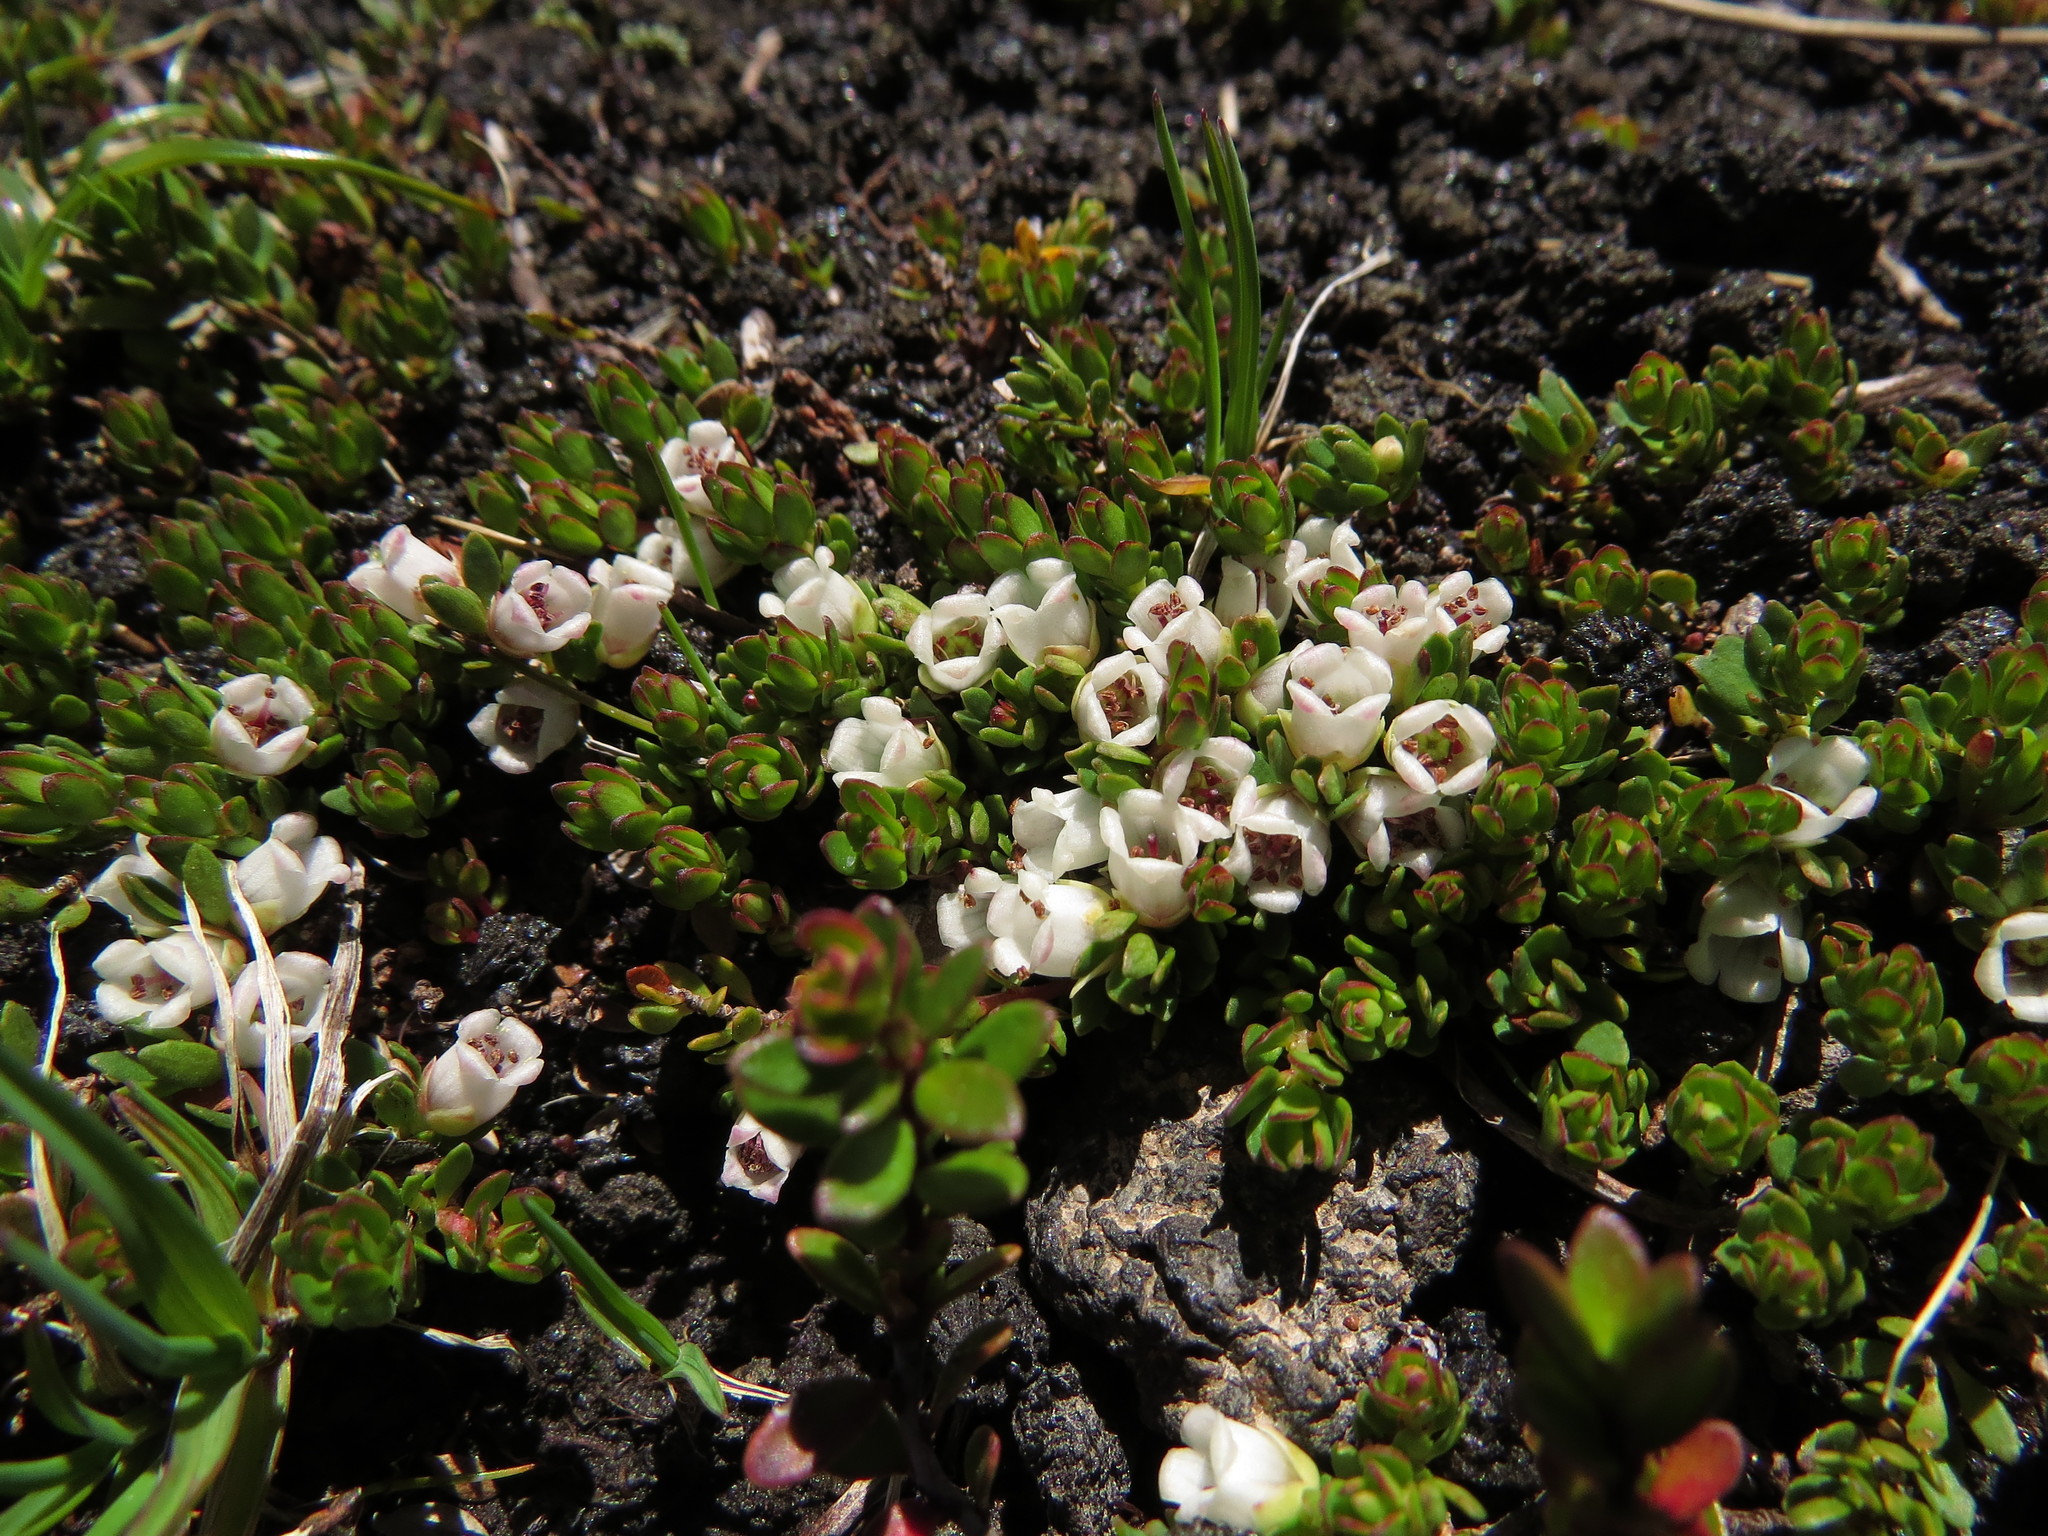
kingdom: Plantae
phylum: Tracheophyta
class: Magnoliopsida
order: Ericales
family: Ericaceae
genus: Gaultheria
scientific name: Gaultheria caespitosa
